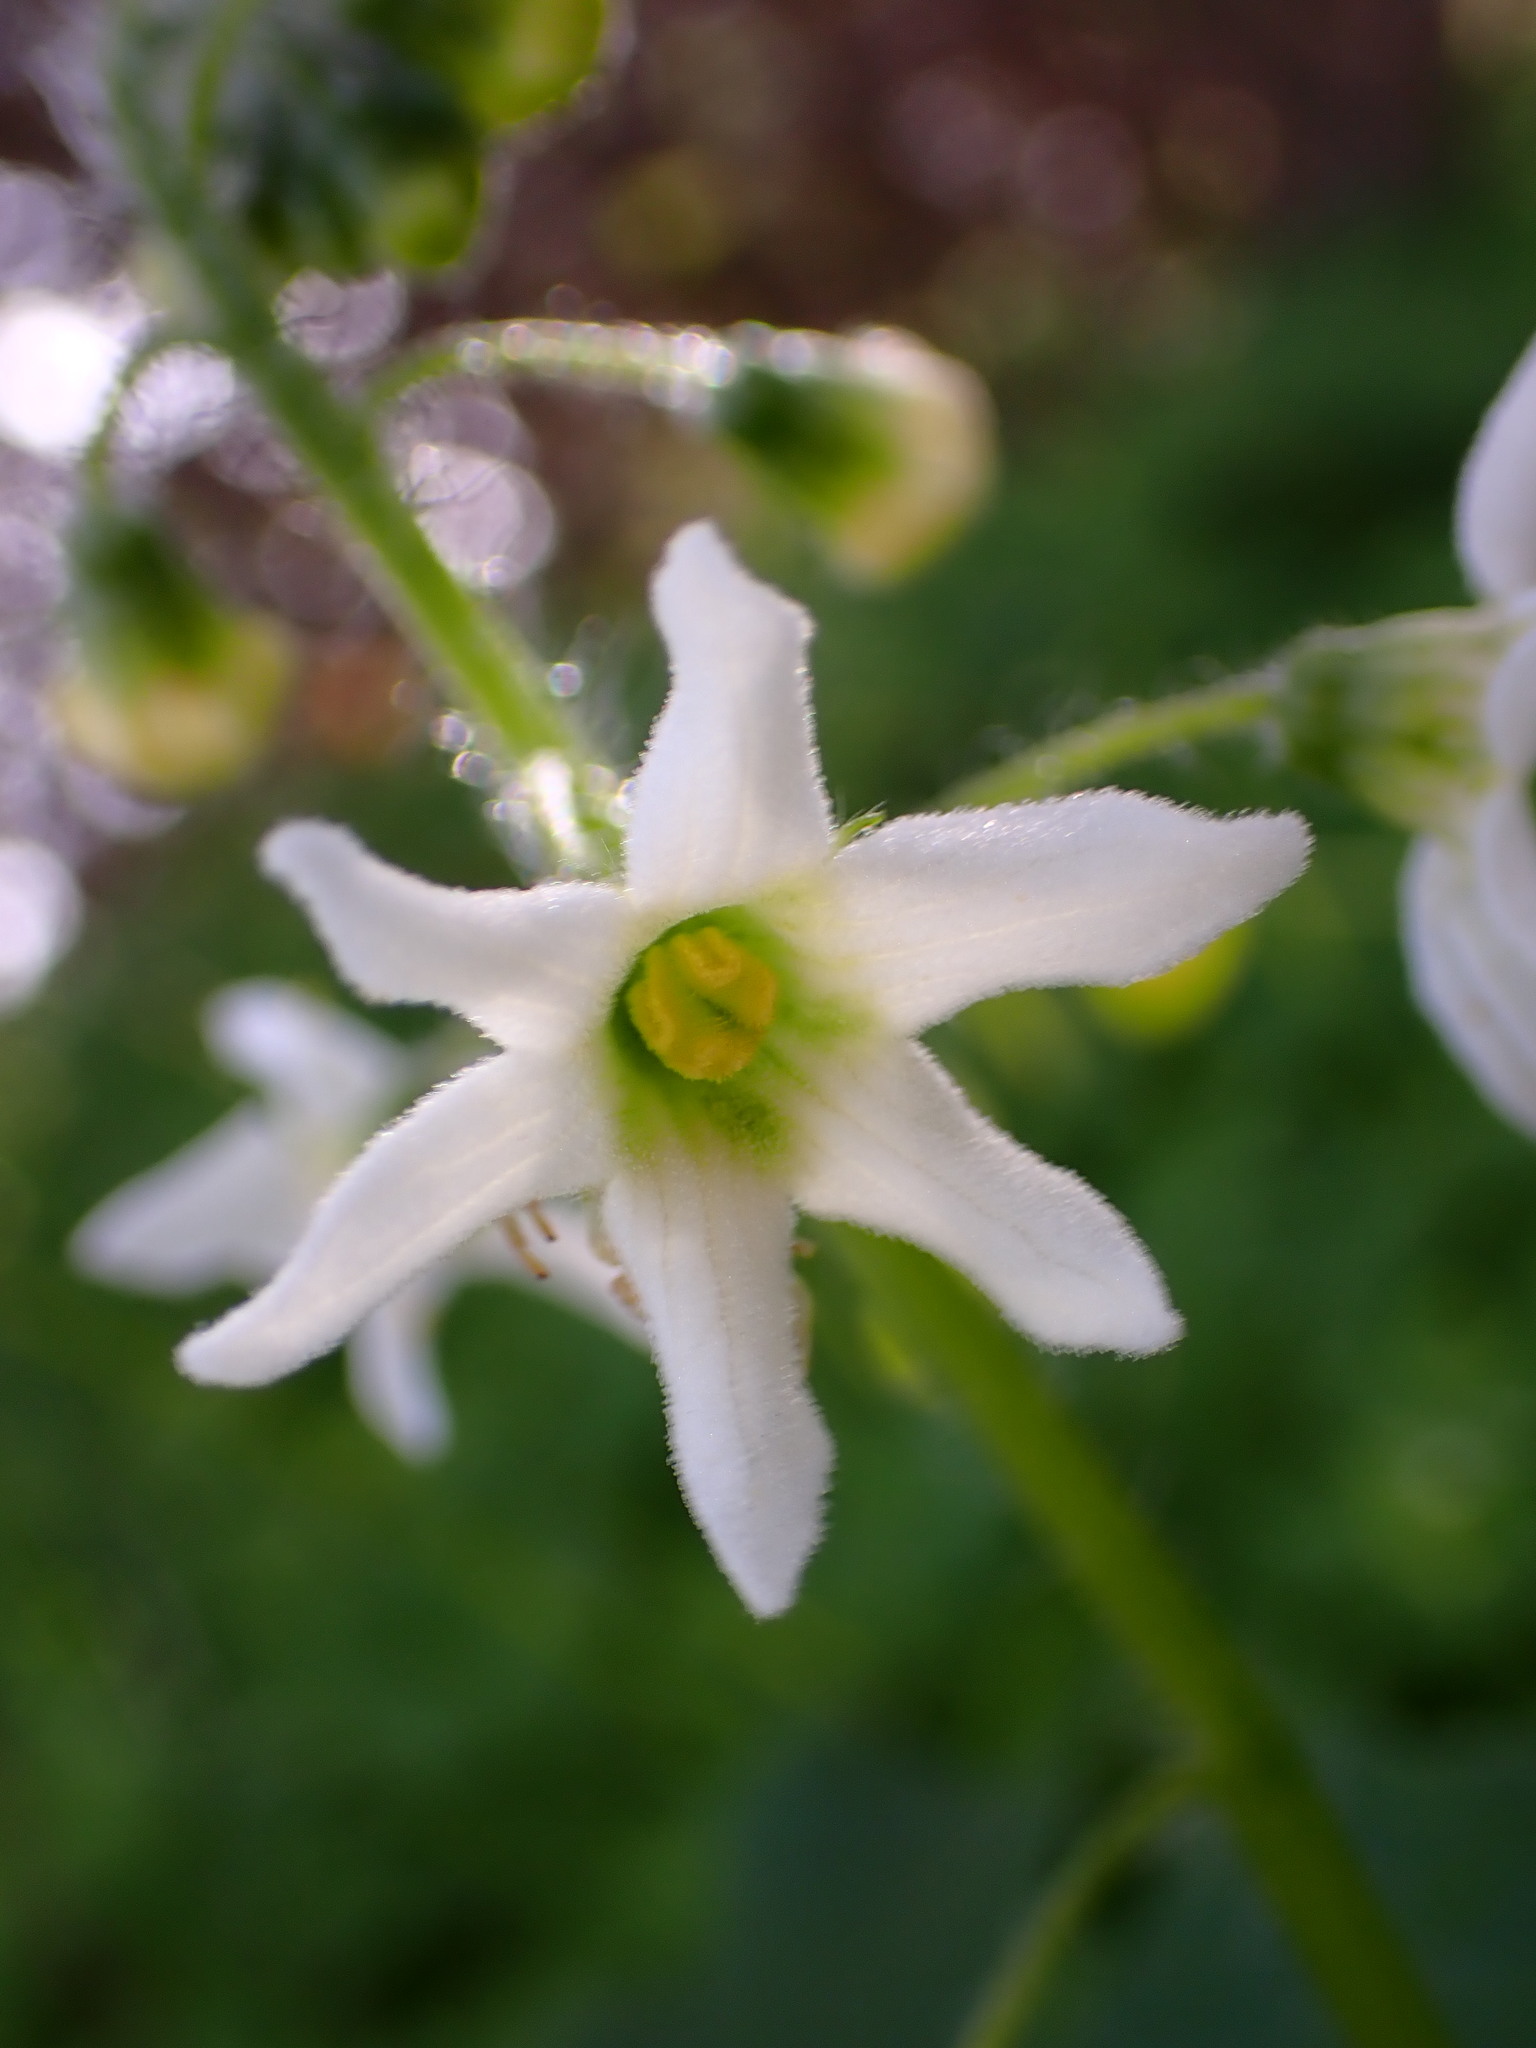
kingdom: Plantae
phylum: Tracheophyta
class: Magnoliopsida
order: Cucurbitales
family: Cucurbitaceae
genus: Marah
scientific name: Marah oregana
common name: Coastal manroot
